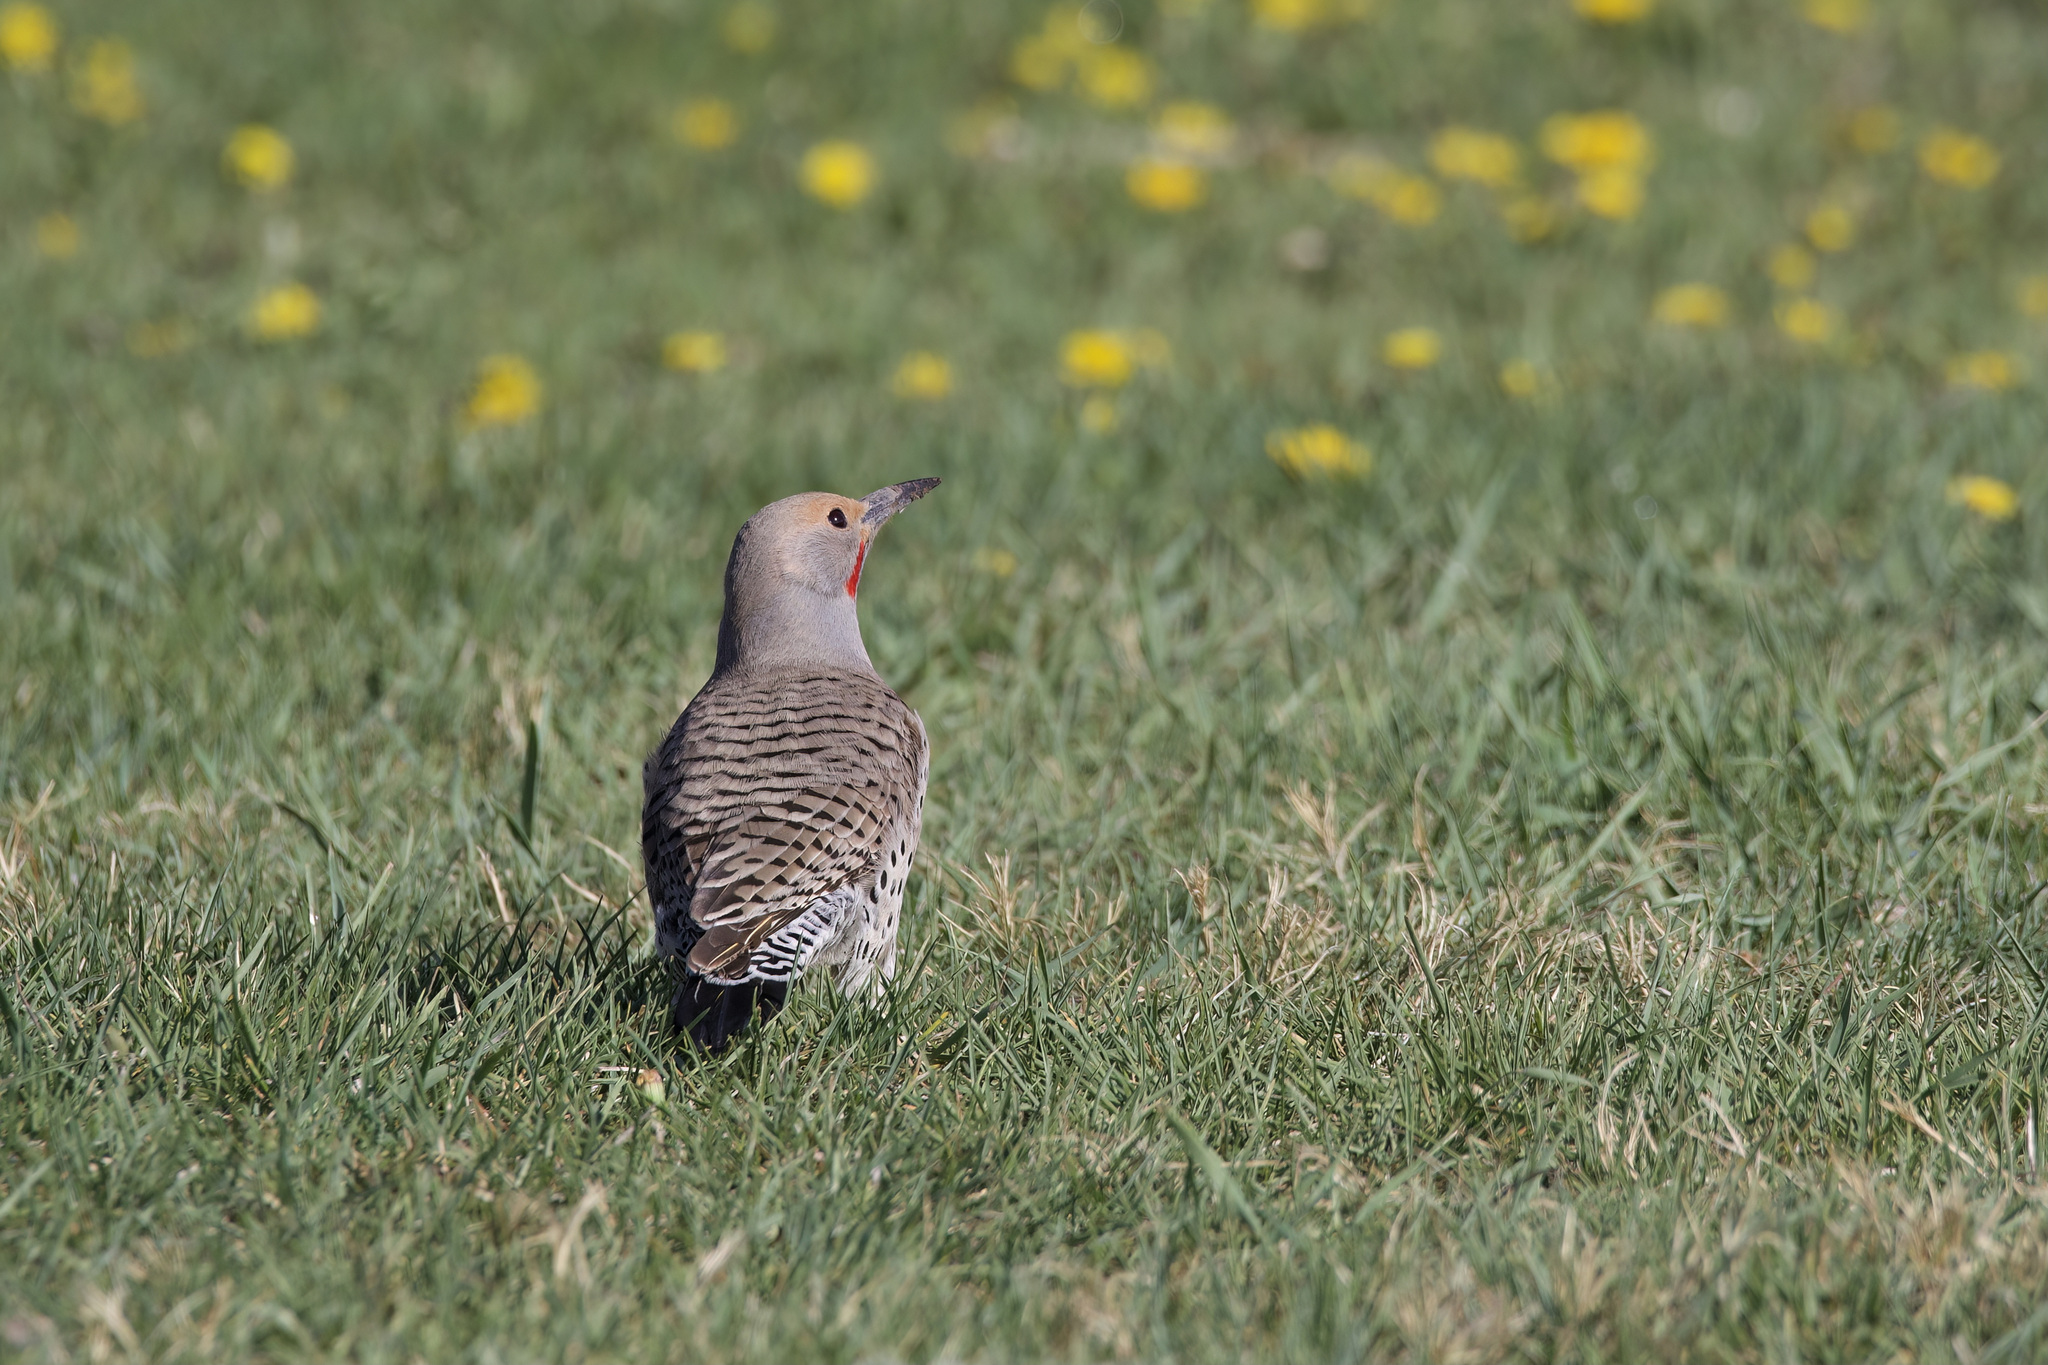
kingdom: Animalia
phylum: Chordata
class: Aves
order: Piciformes
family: Picidae
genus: Colaptes
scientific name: Colaptes auratus
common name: Northern flicker
